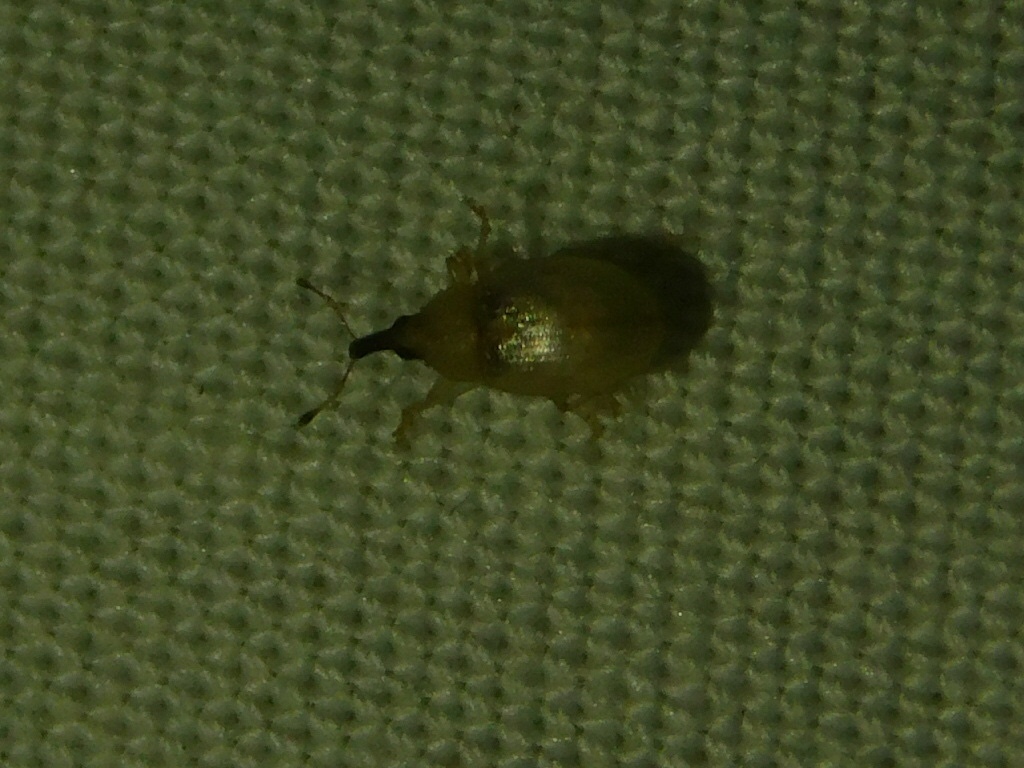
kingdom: Animalia
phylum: Arthropoda
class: Insecta
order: Coleoptera
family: Curculionidae
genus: Notolomus
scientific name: Notolomus basalis
